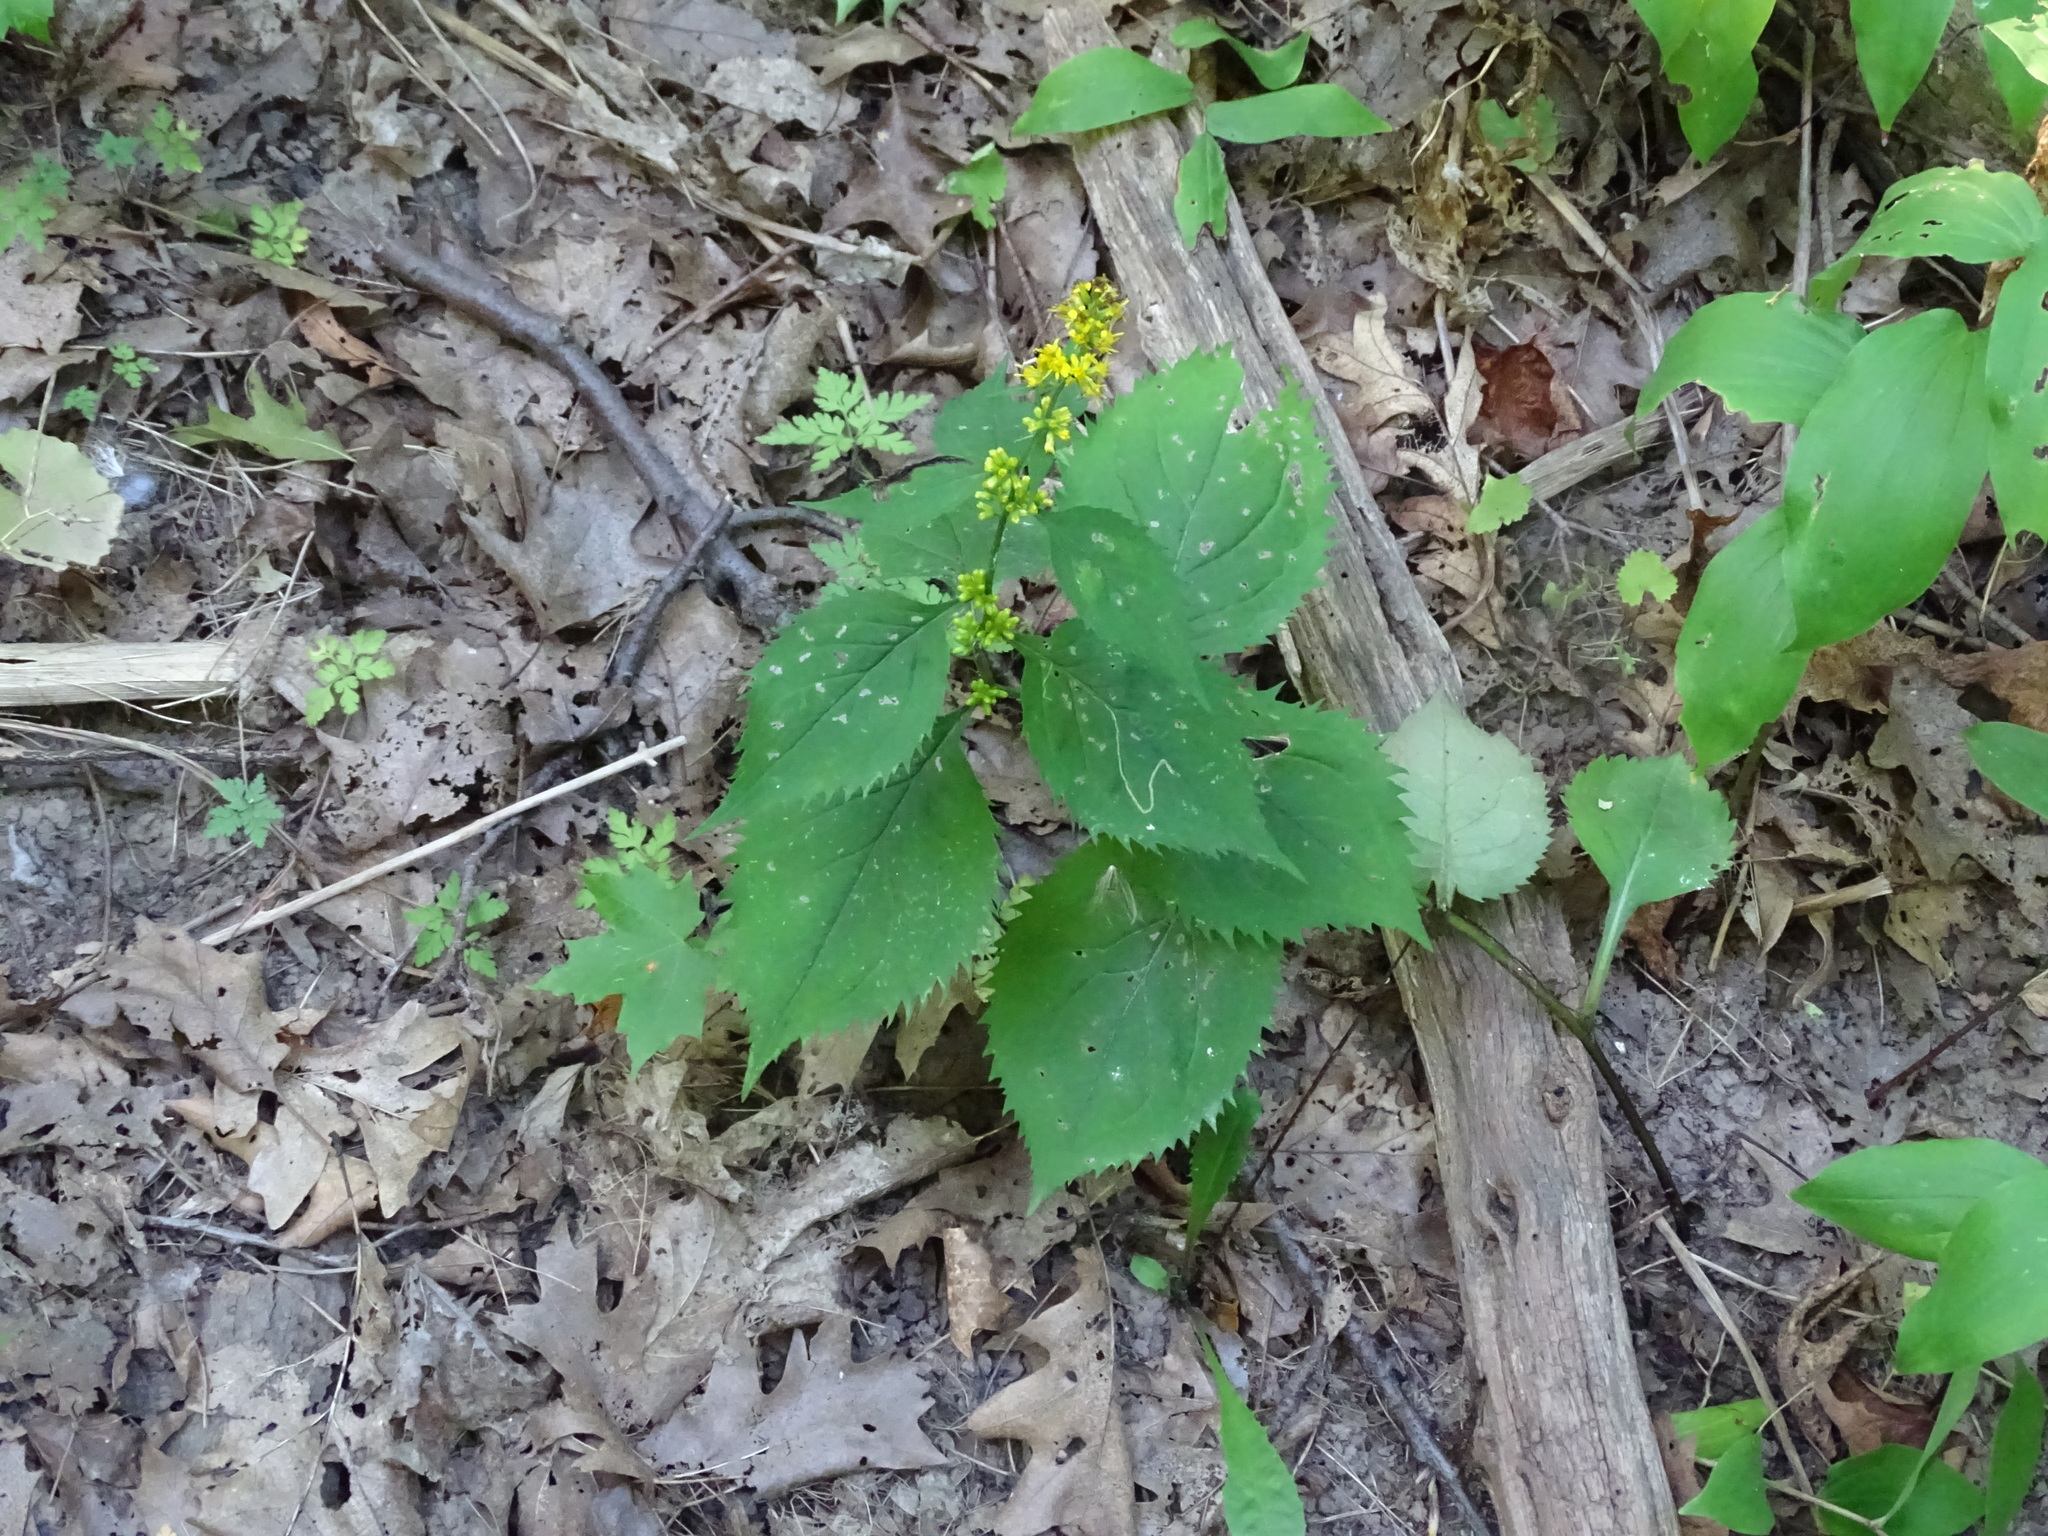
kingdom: Plantae
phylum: Tracheophyta
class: Magnoliopsida
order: Asterales
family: Asteraceae
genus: Solidago
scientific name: Solidago flexicaulis
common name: Zig-zag goldenrod
